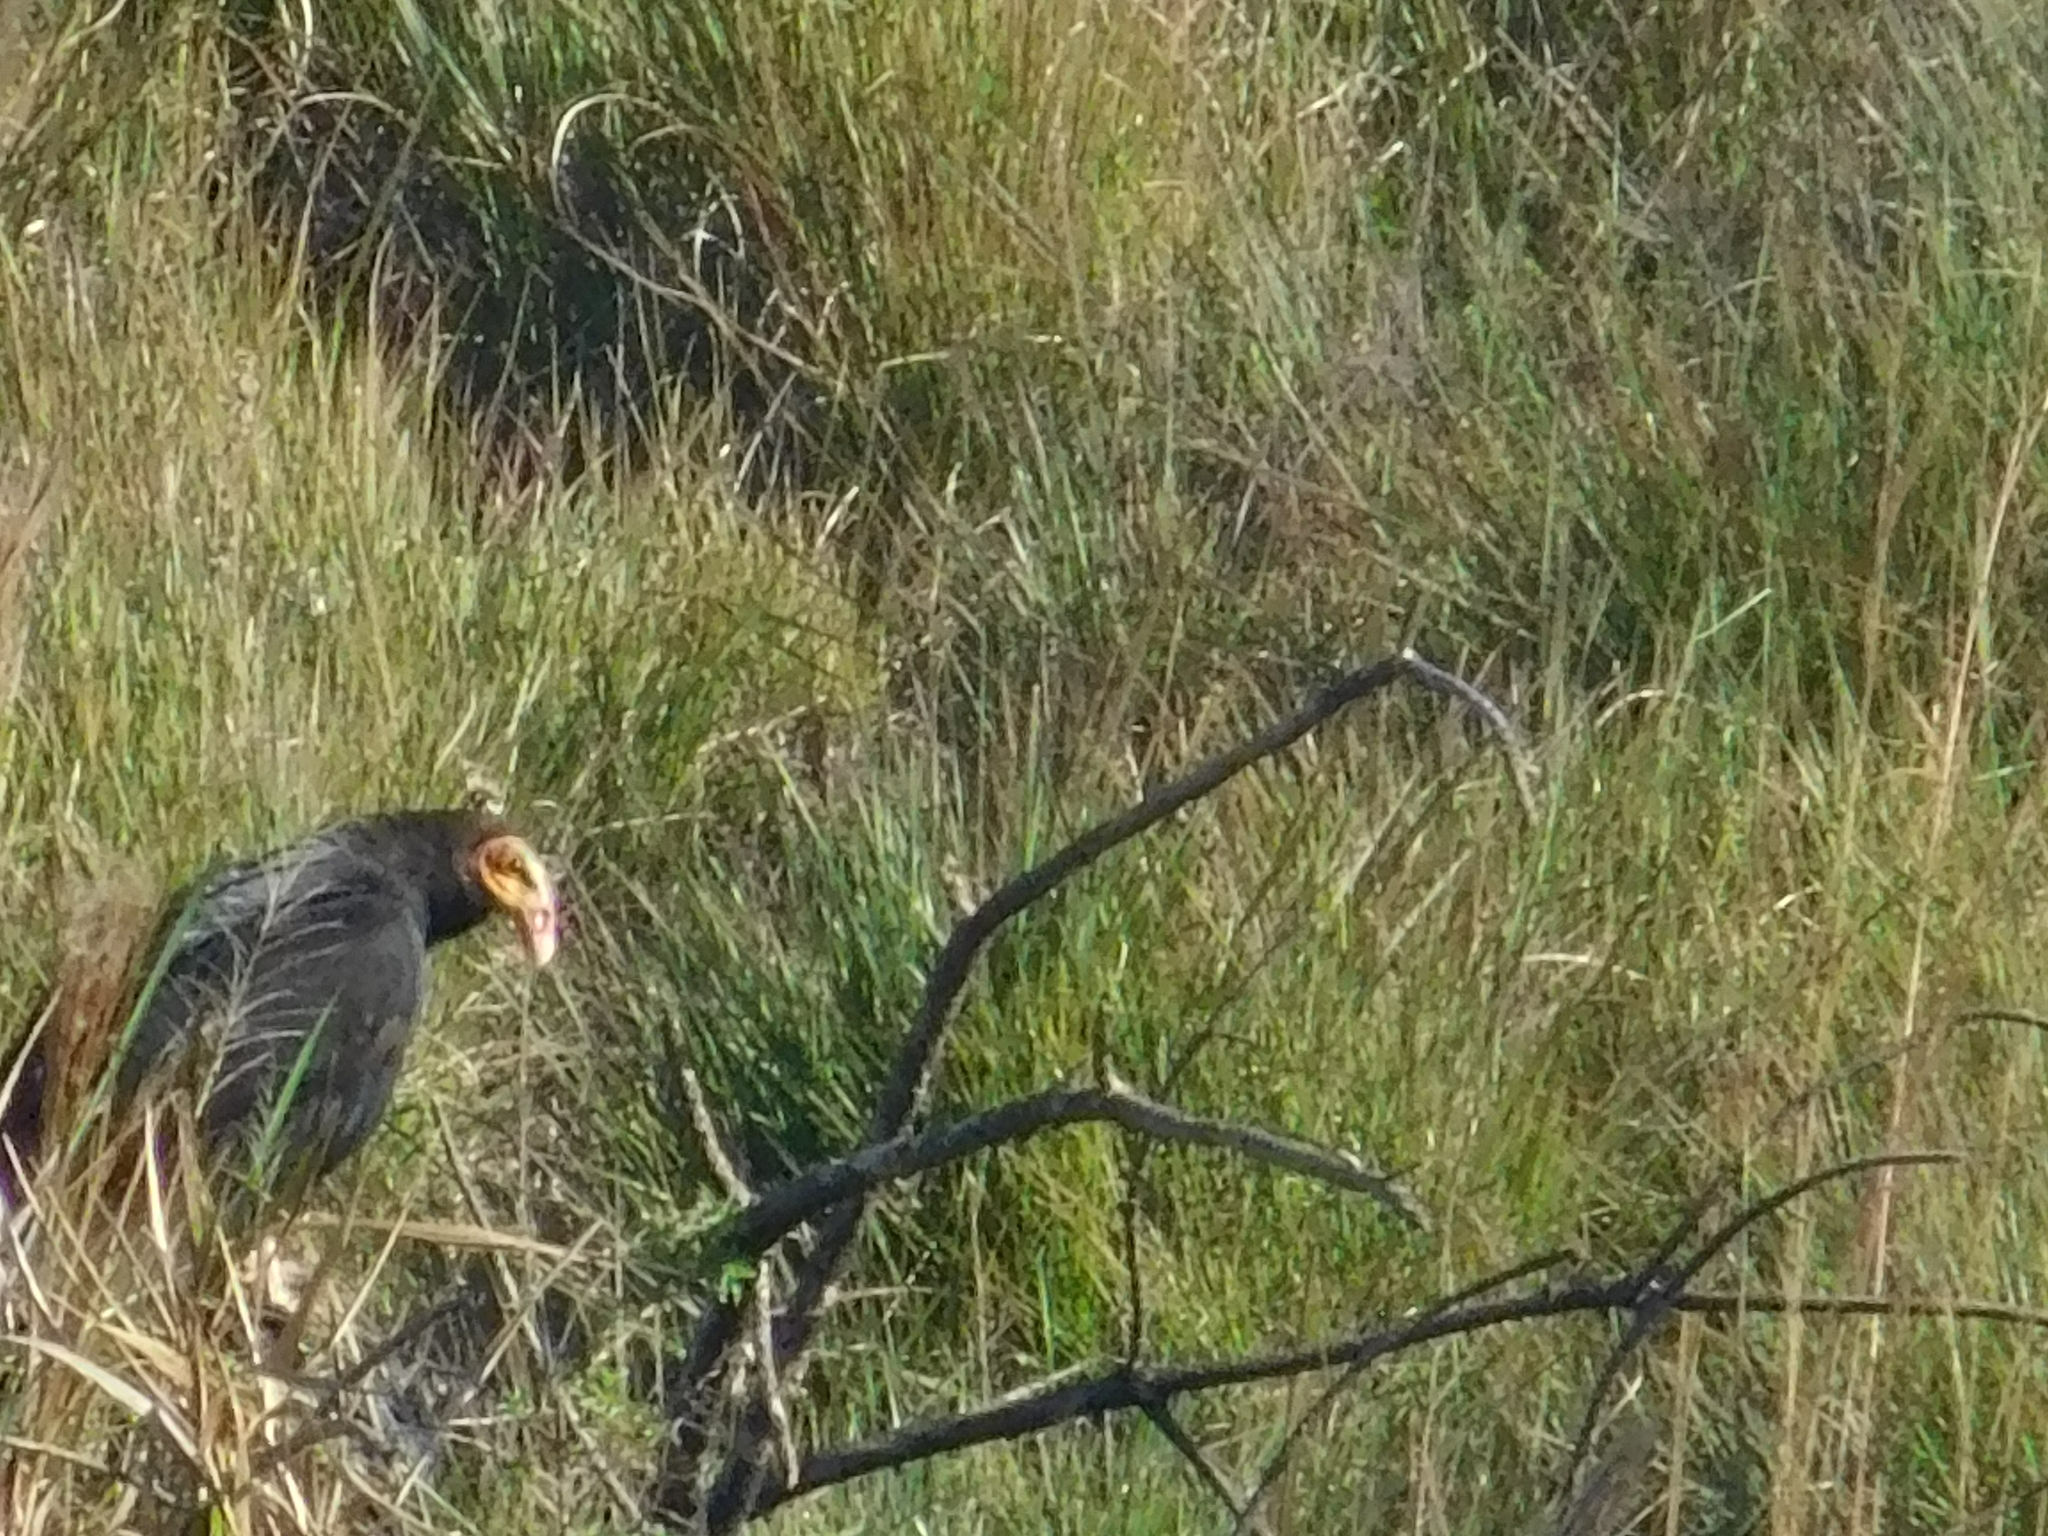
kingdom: Animalia
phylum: Chordata
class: Aves
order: Accipitriformes
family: Cathartidae
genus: Cathartes
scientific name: Cathartes burrovianus
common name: Lesser yellow-headed vulture
